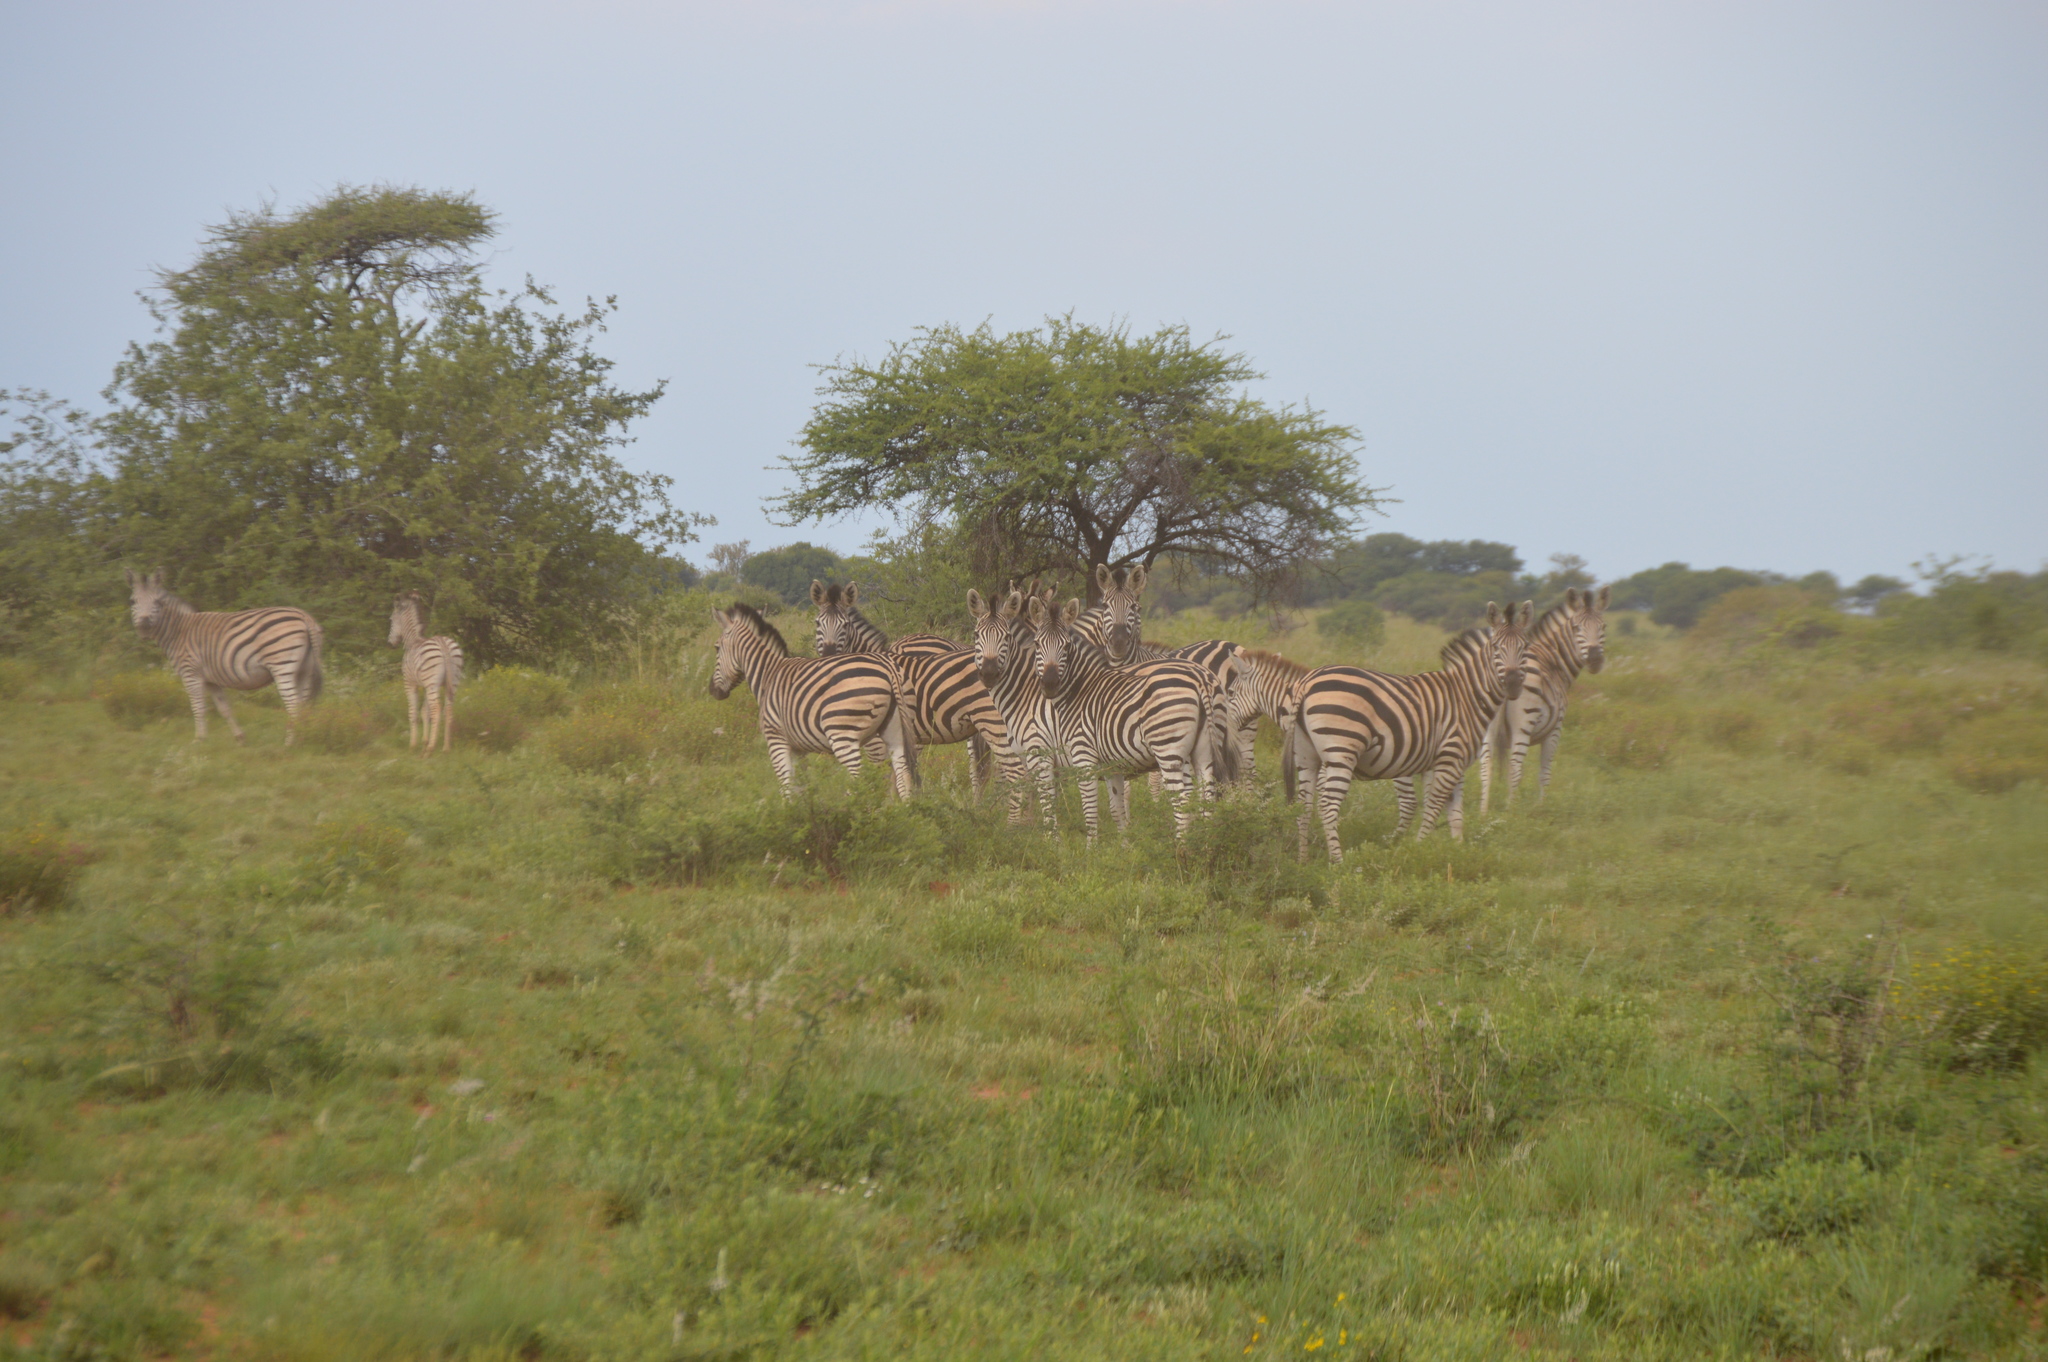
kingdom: Animalia
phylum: Chordata
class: Mammalia
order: Perissodactyla
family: Equidae
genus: Equus
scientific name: Equus quagga
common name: Plains zebra
